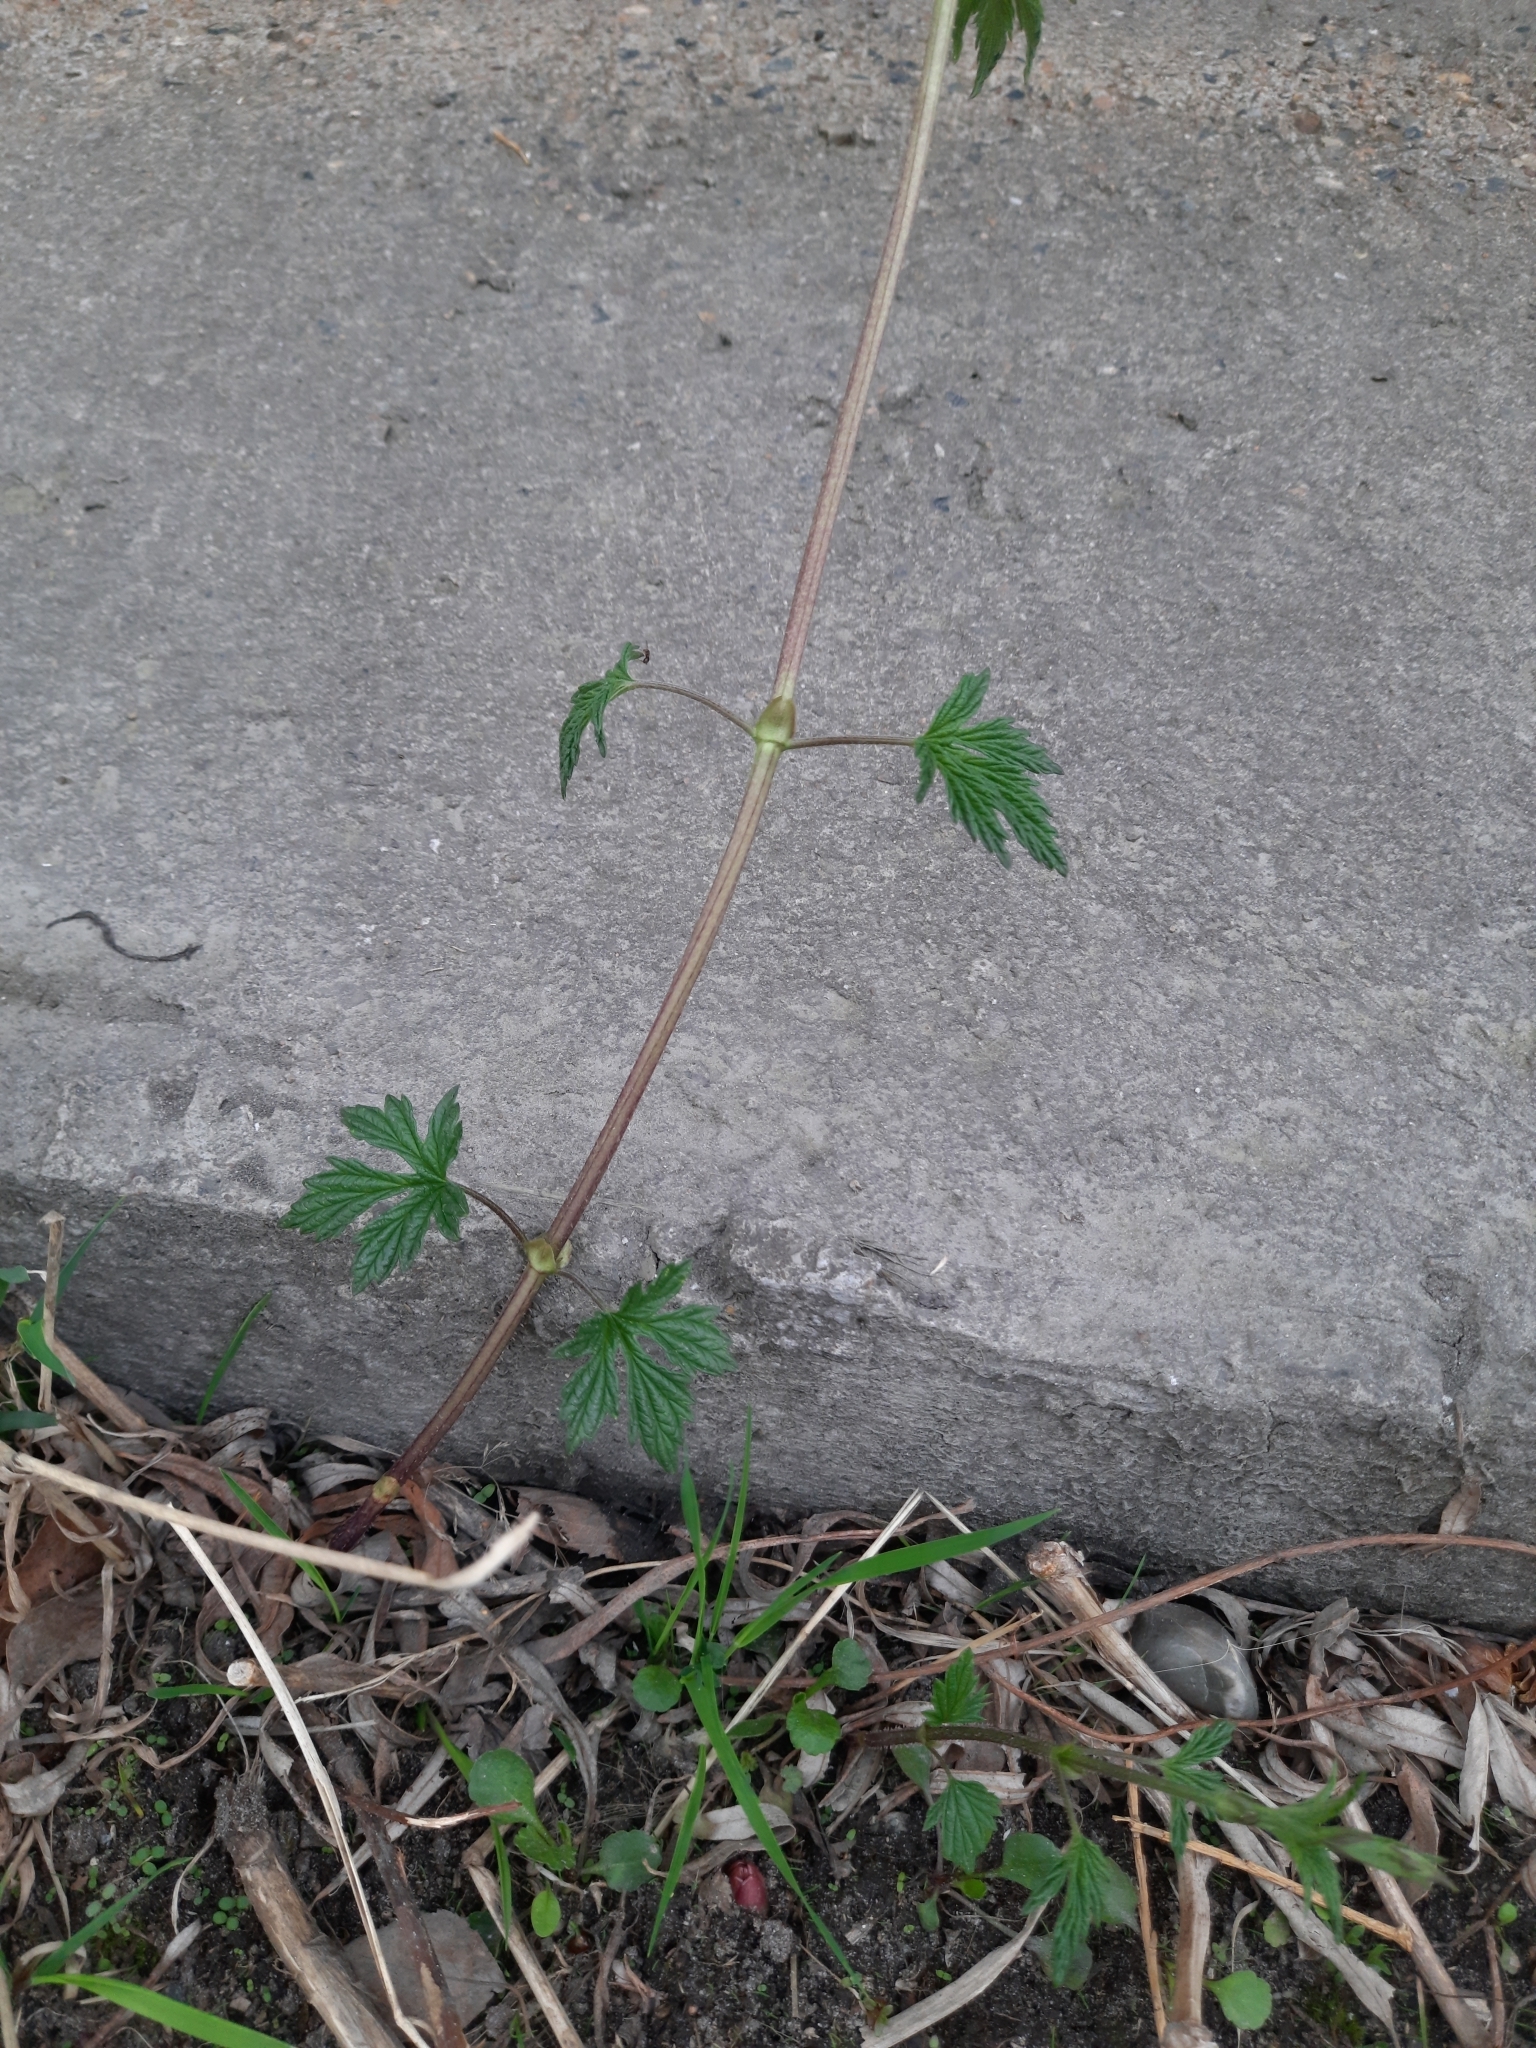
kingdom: Plantae
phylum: Tracheophyta
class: Magnoliopsida
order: Rosales
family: Cannabaceae
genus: Humulus
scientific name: Humulus lupulus
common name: Hop
